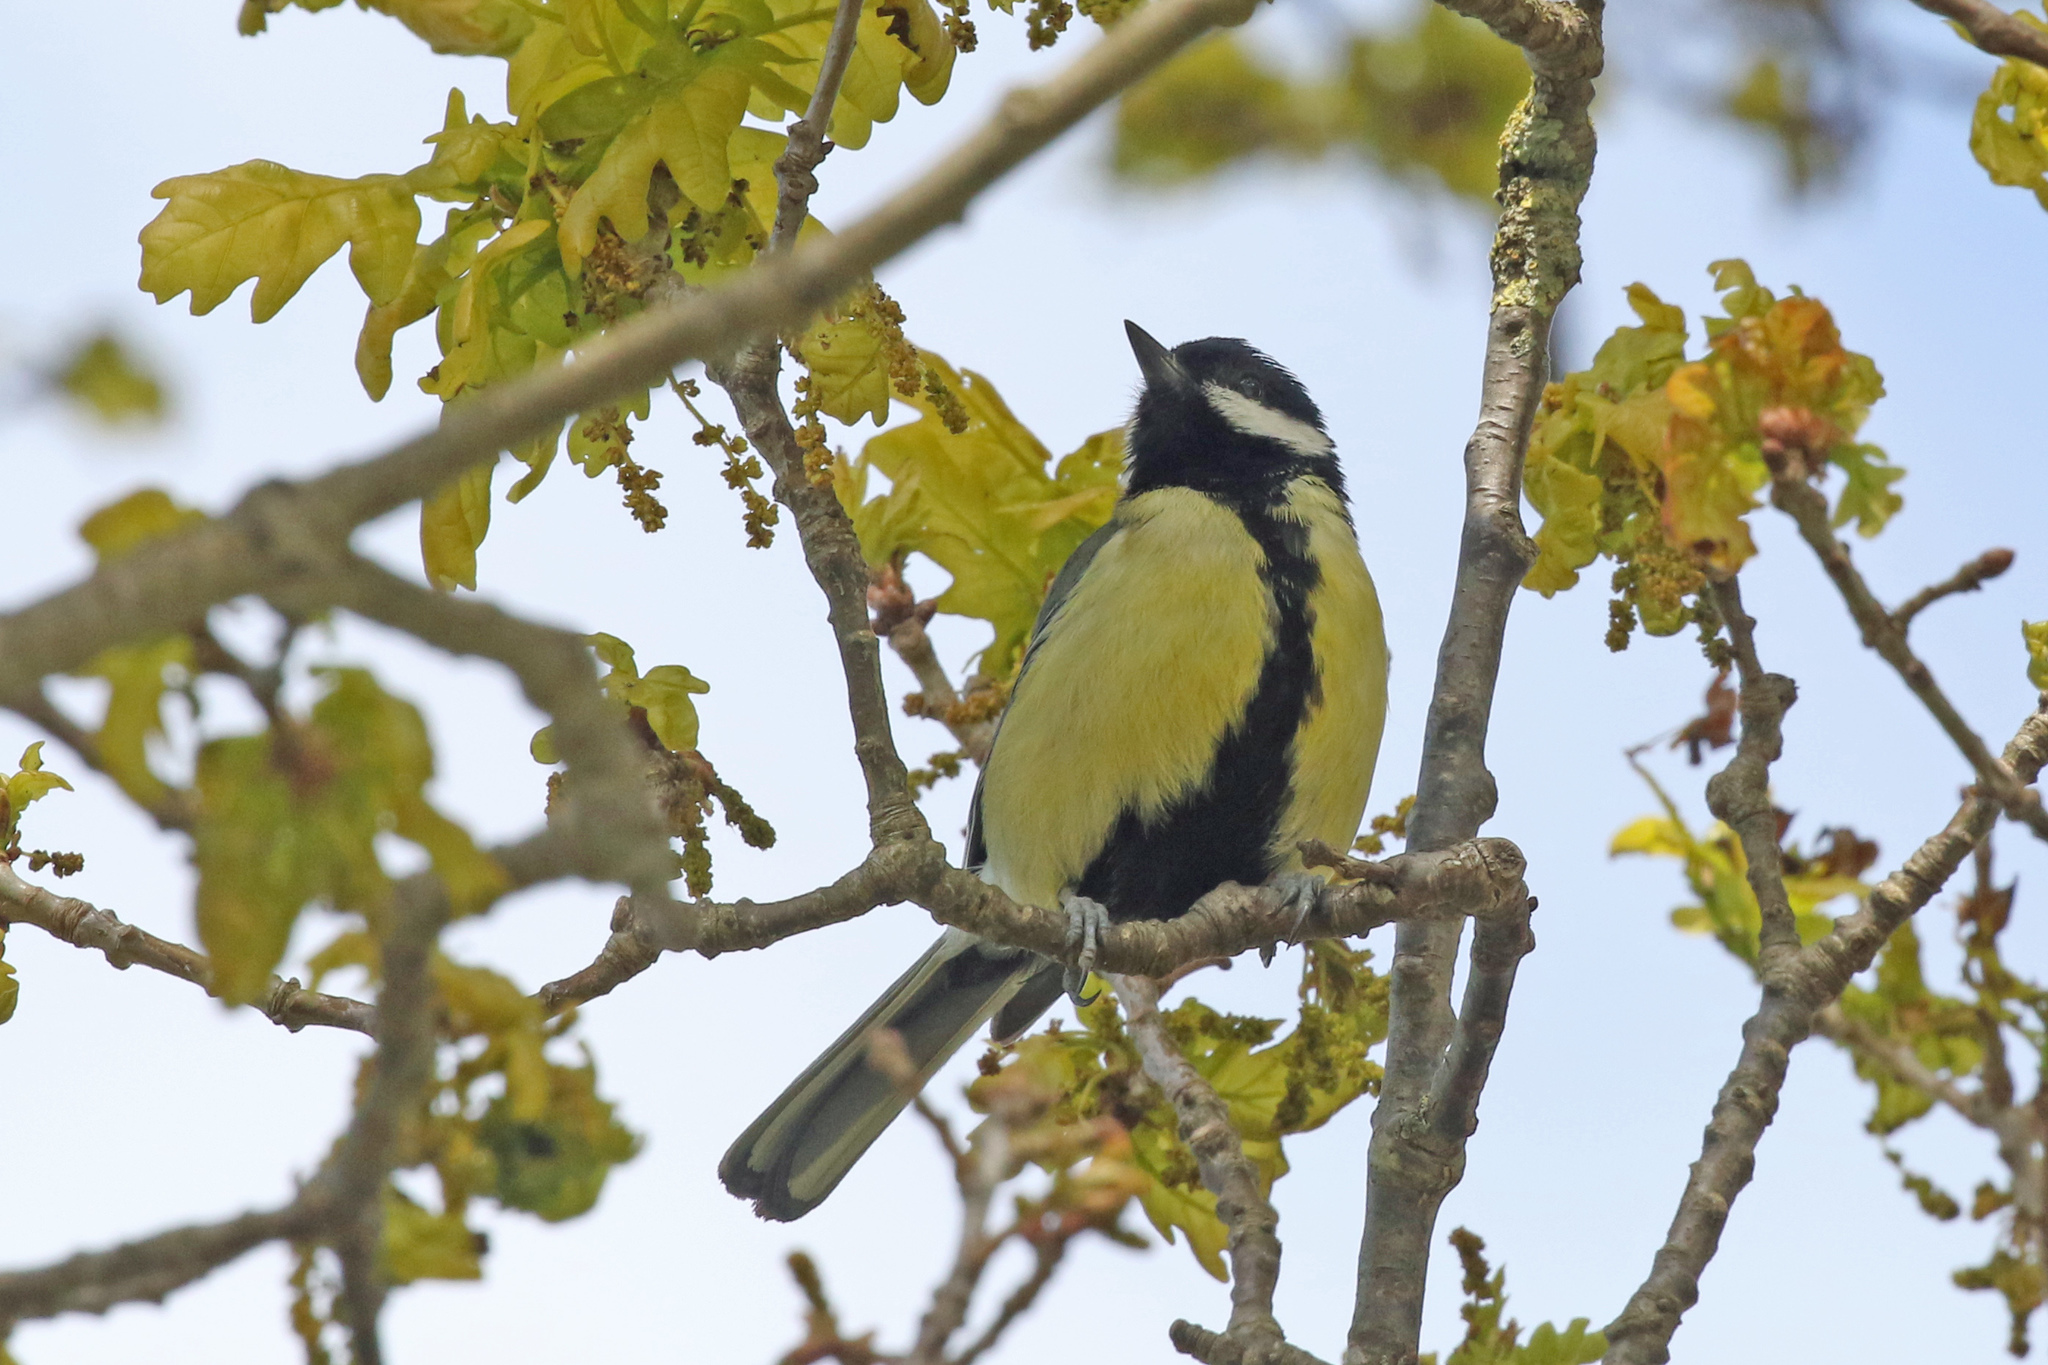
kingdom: Animalia
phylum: Chordata
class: Aves
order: Passeriformes
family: Paridae
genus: Parus
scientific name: Parus major
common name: Great tit
